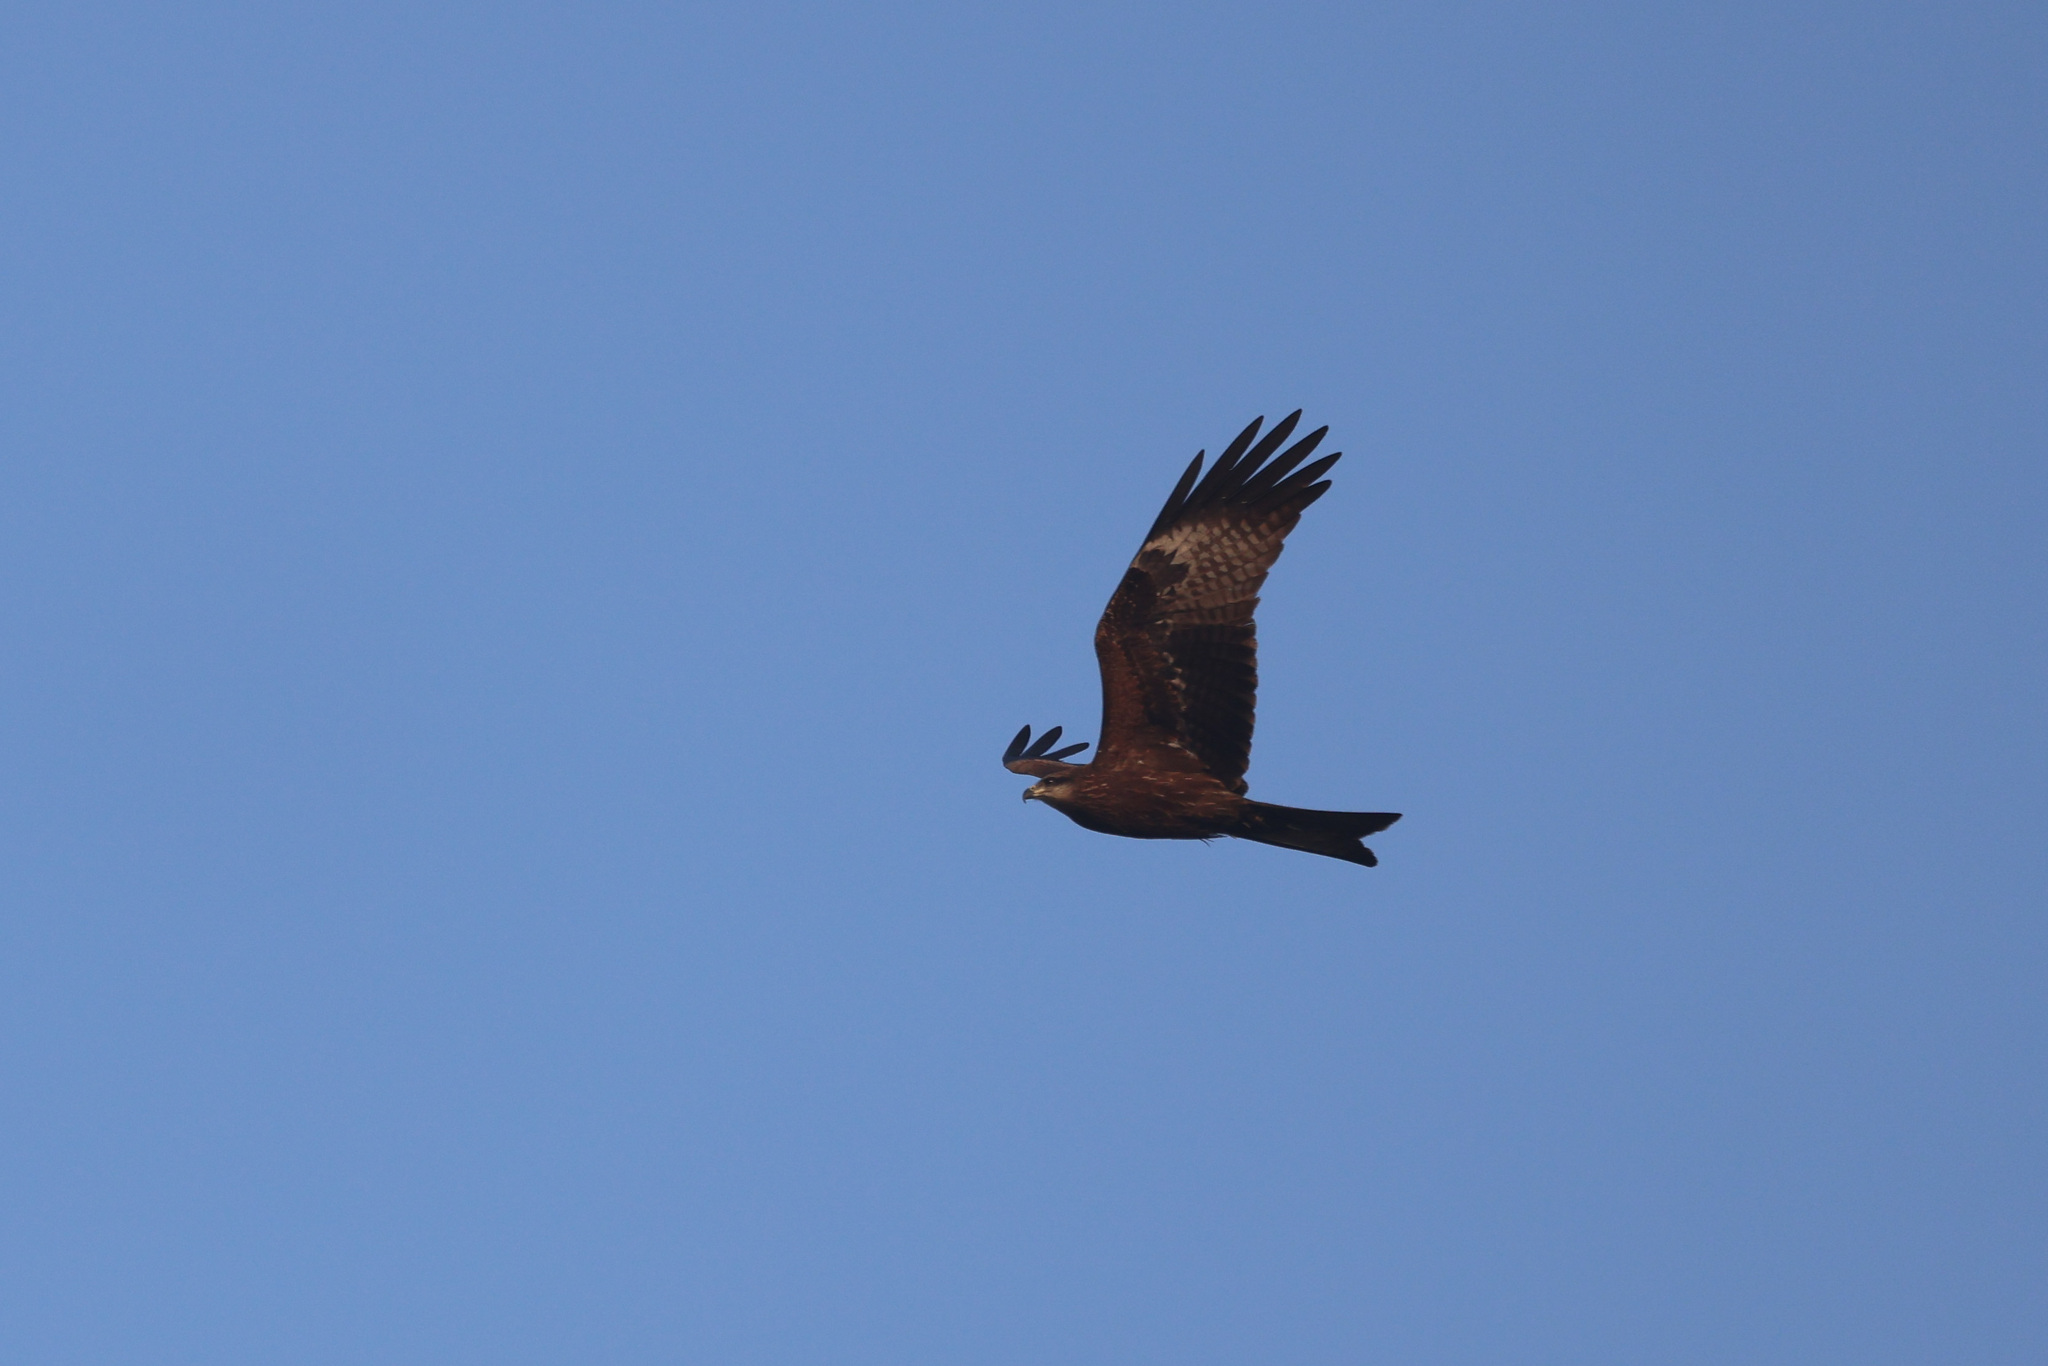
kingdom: Animalia
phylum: Chordata
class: Aves
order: Accipitriformes
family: Accipitridae
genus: Milvus
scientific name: Milvus migrans
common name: Black kite
